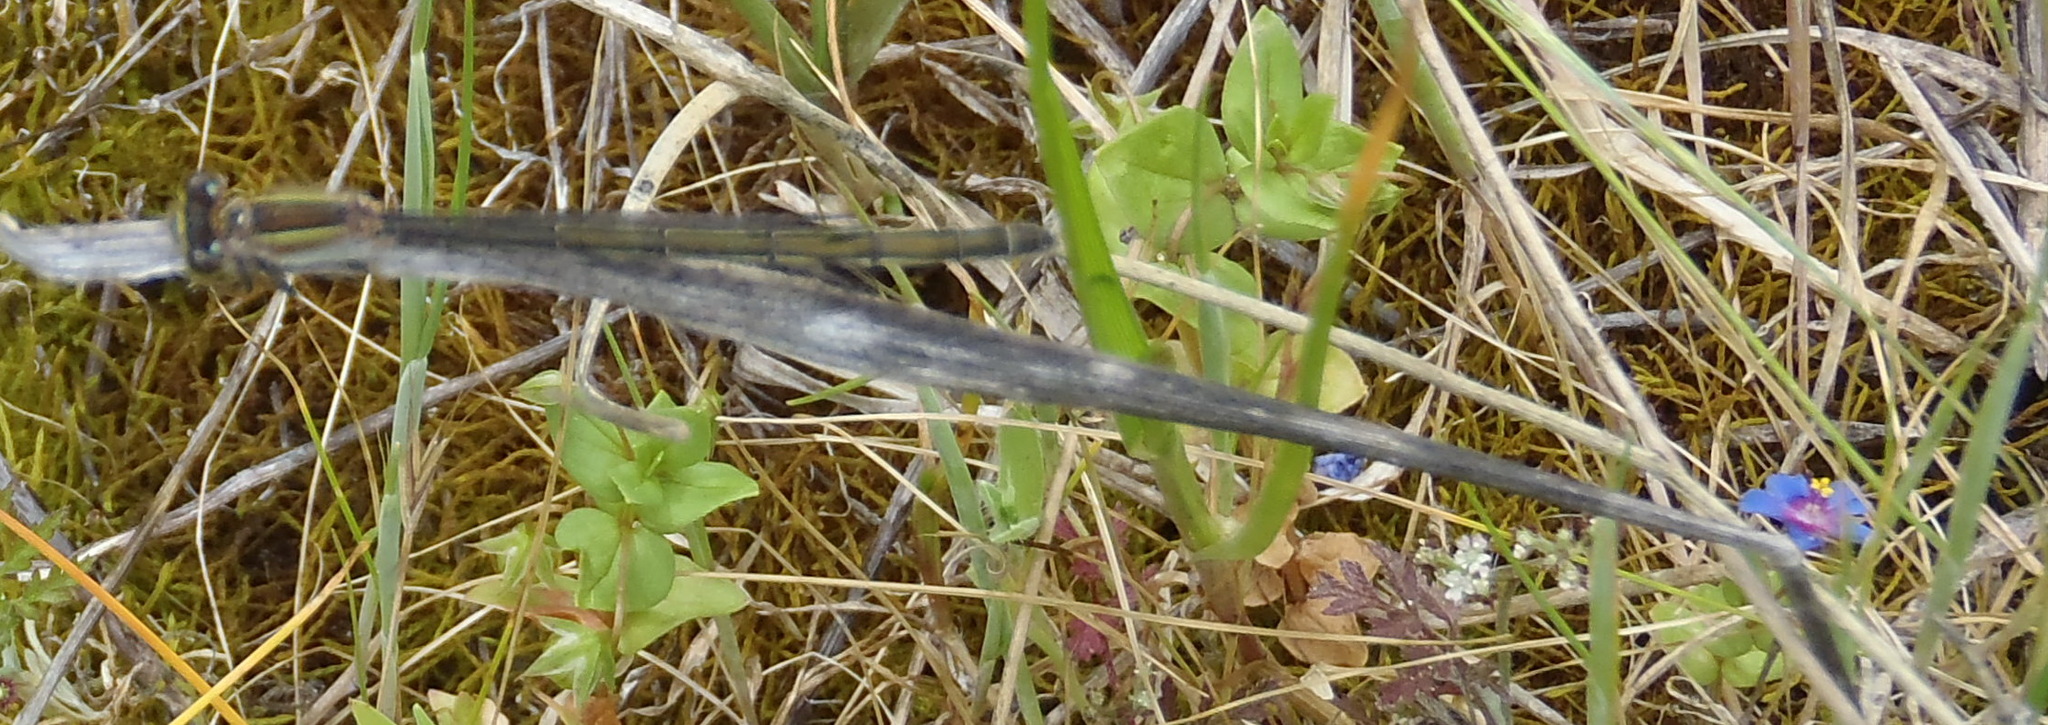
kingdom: Animalia
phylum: Arthropoda
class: Insecta
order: Odonata
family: Coenagrionidae
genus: Ischnura
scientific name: Ischnura senegalensis
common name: Tropical bluetail
